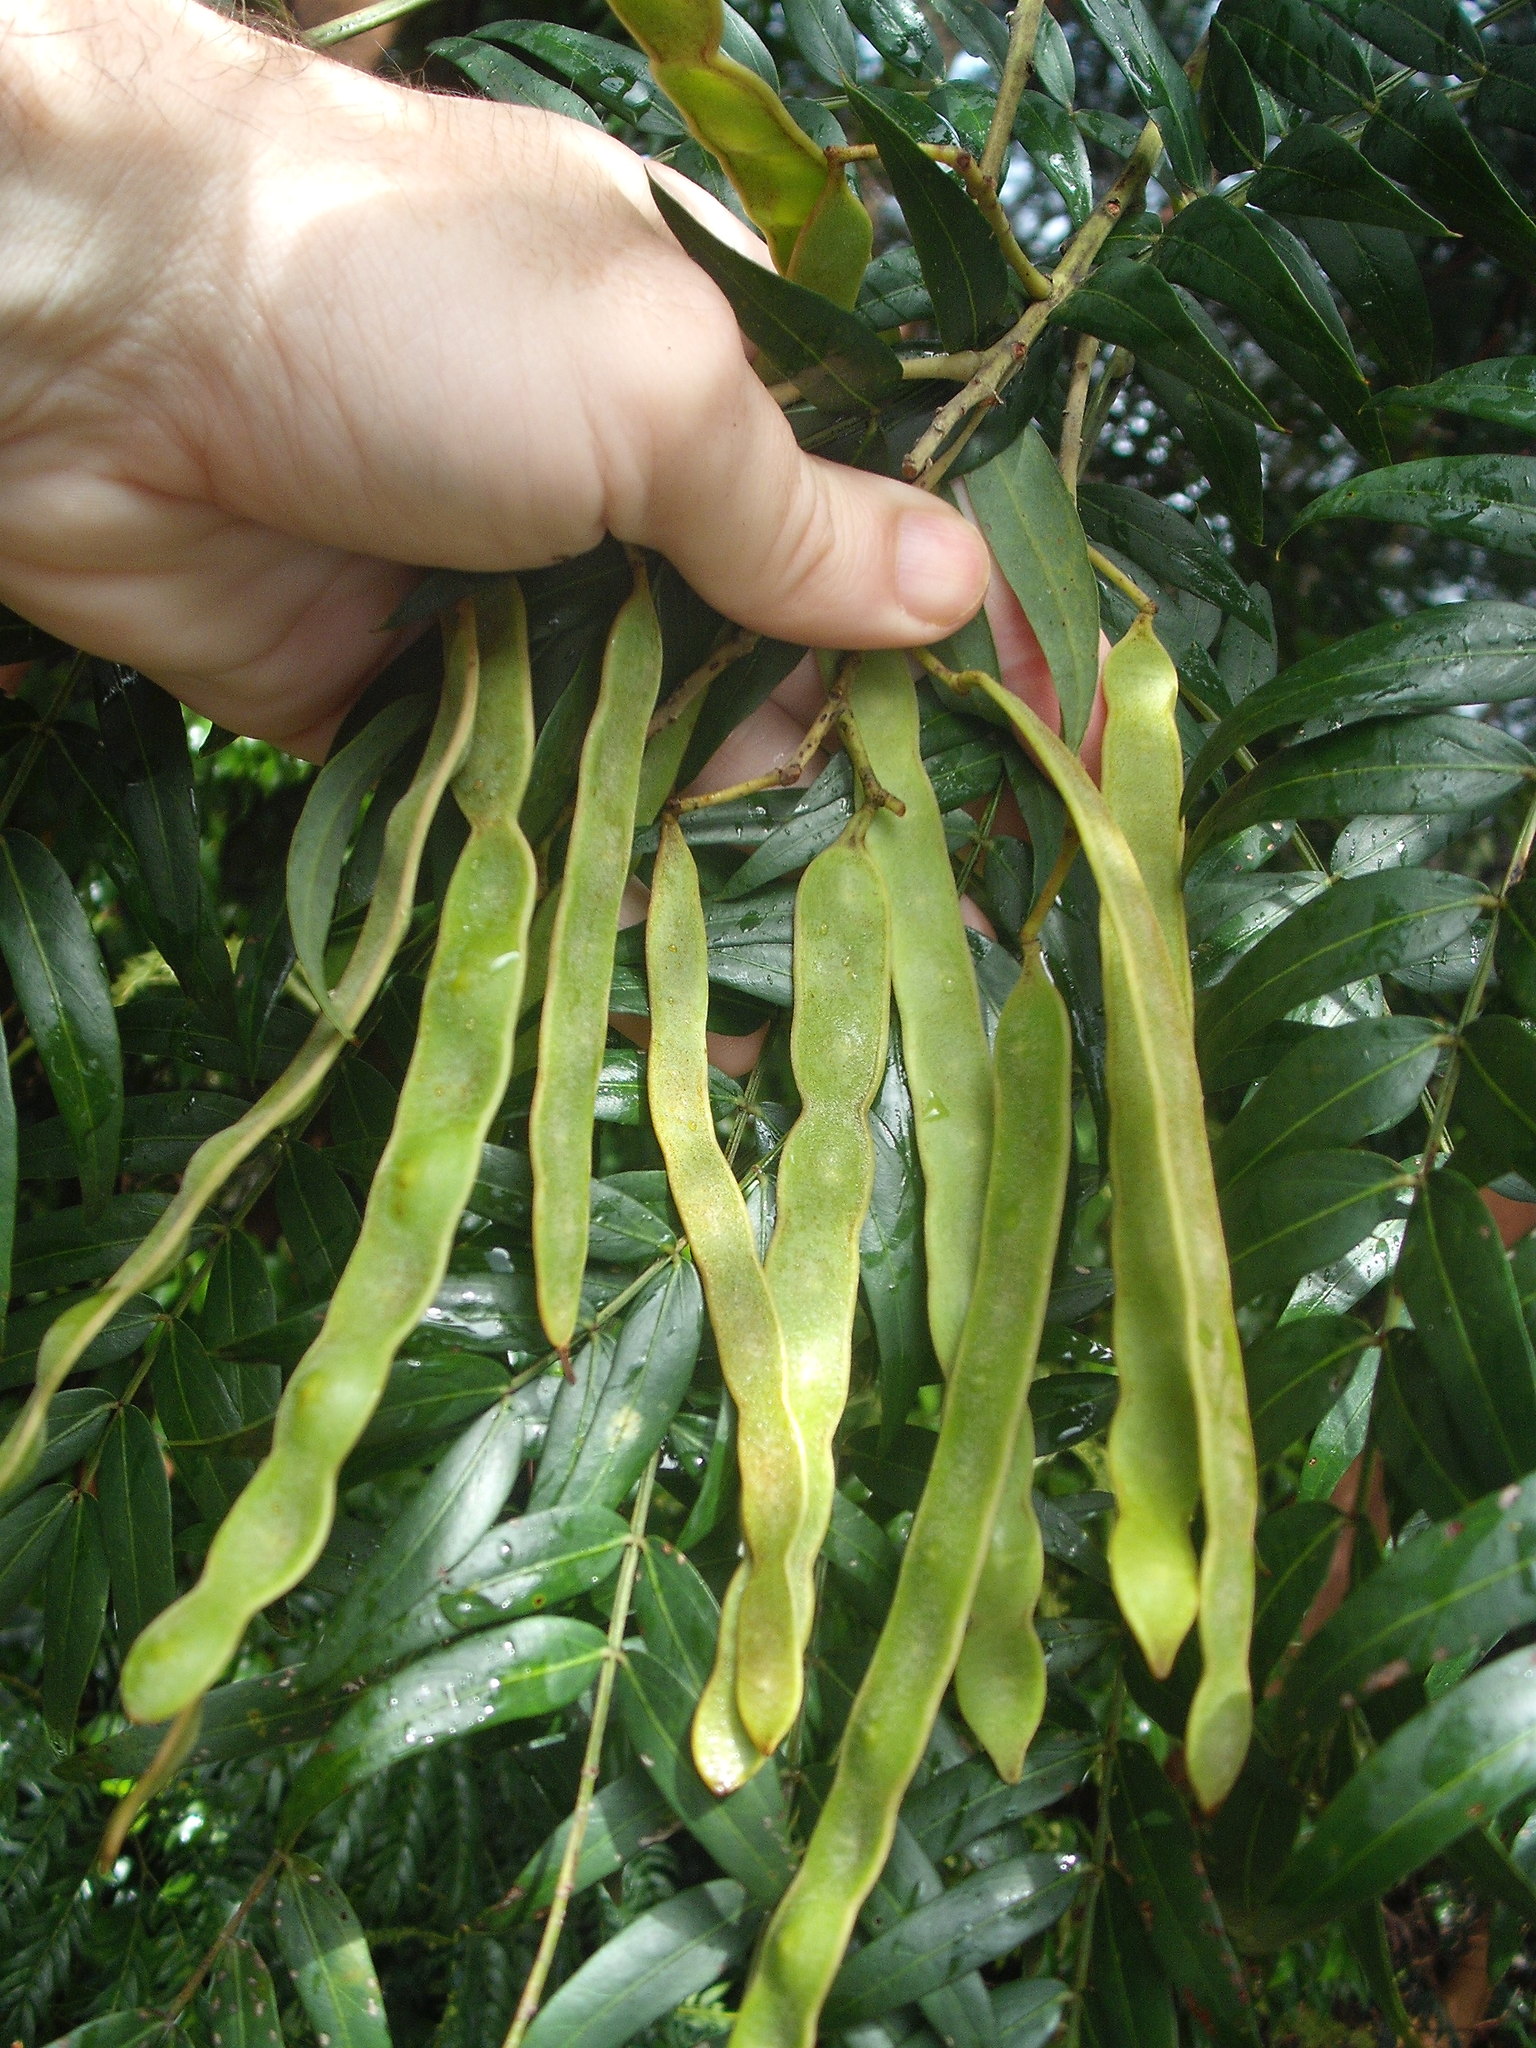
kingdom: Plantae
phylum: Tracheophyta
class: Magnoliopsida
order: Fabales
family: Fabaceae
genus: Acacia
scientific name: Acacia elata
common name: Cedar wattle
